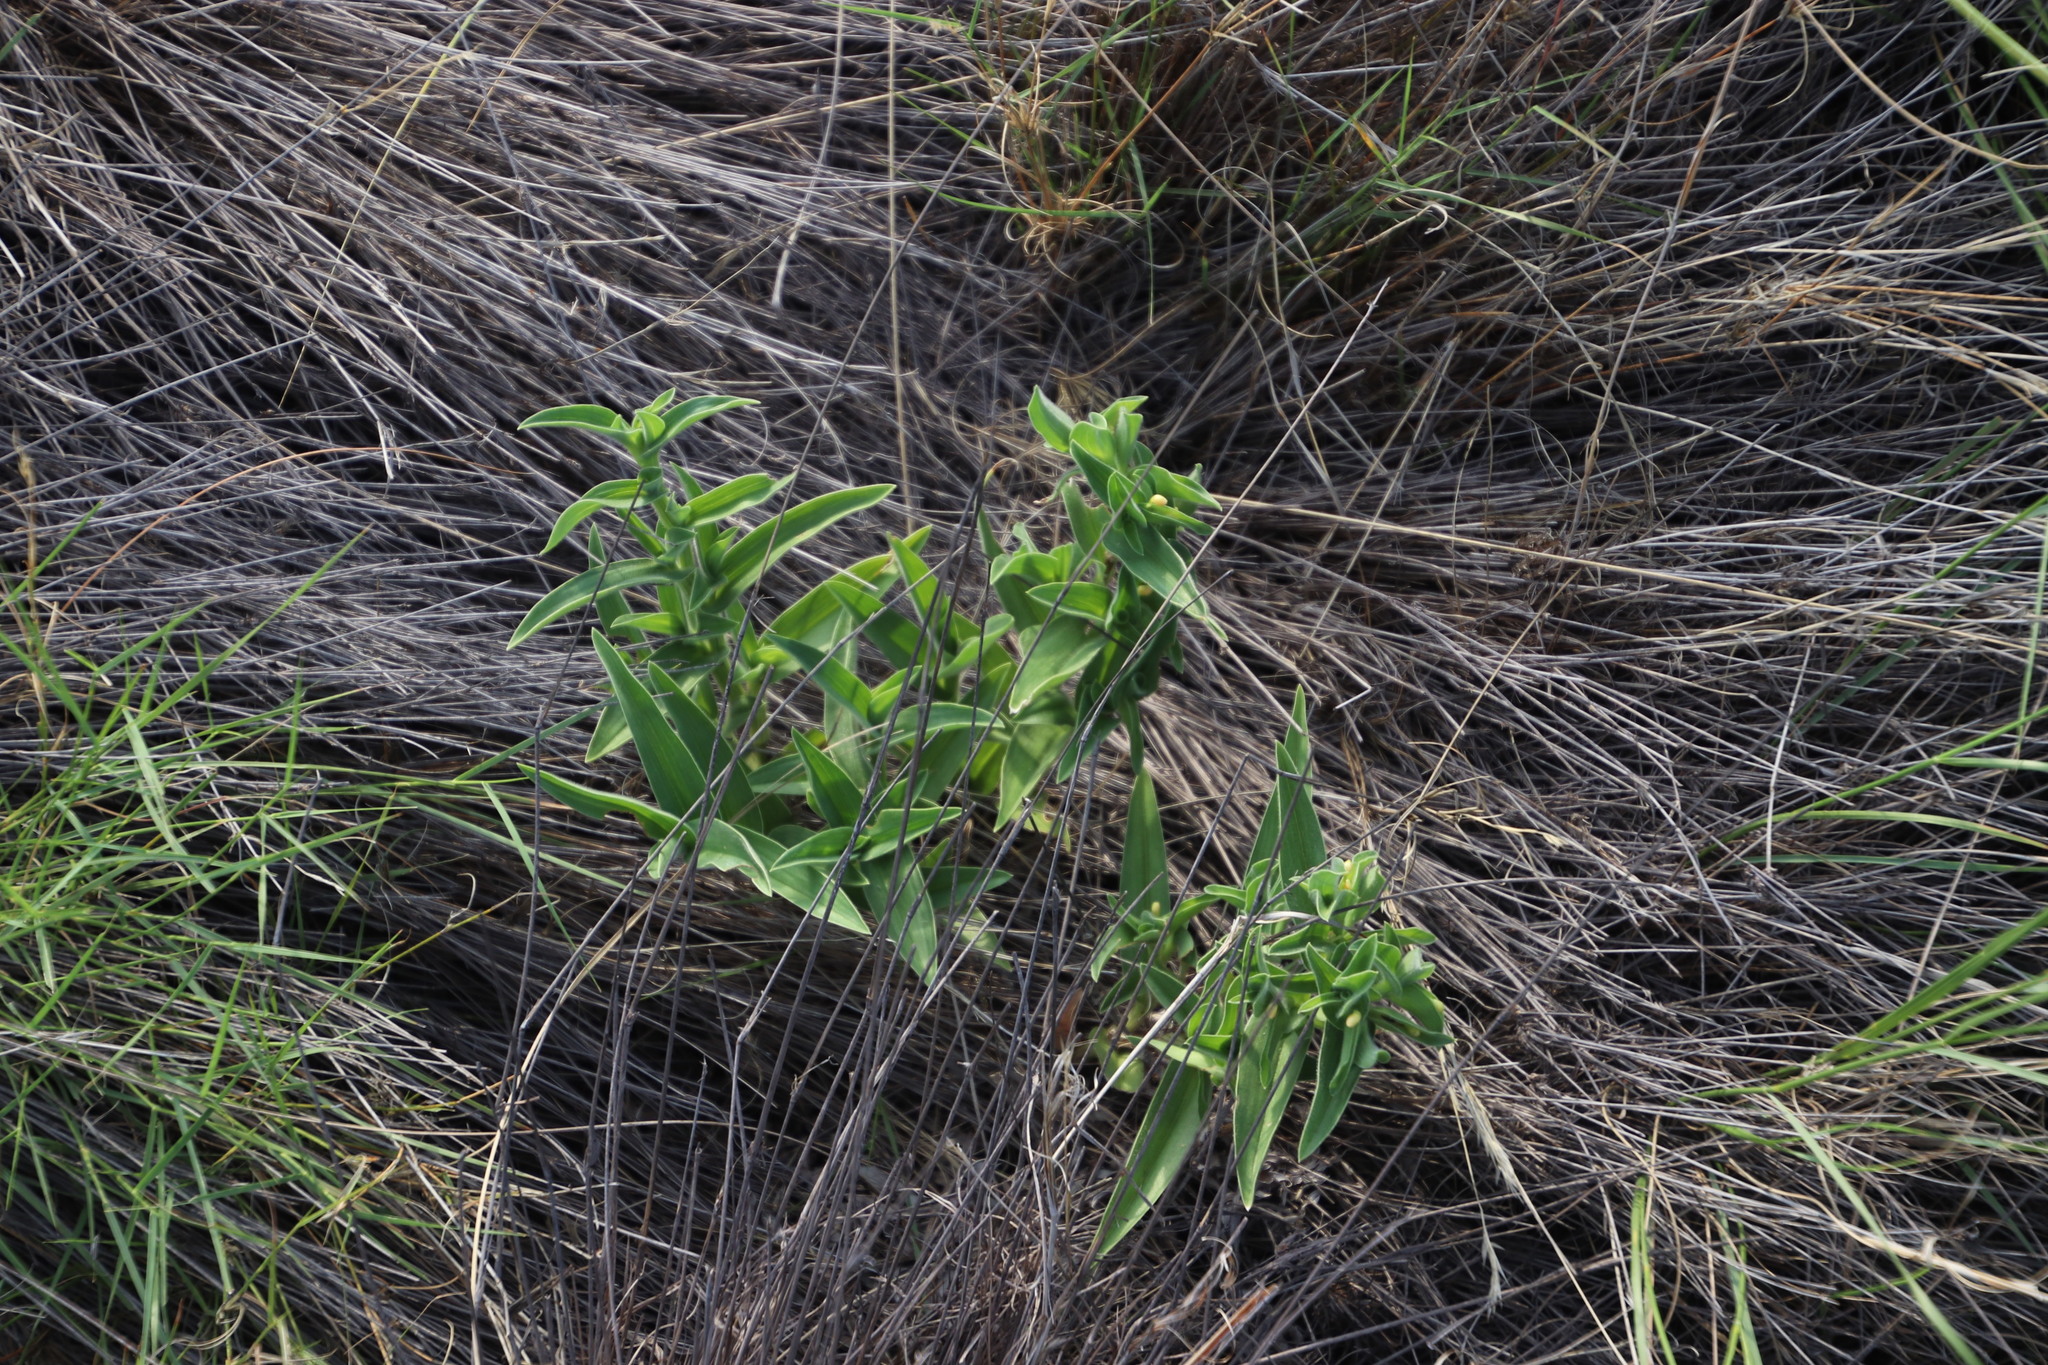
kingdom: Plantae
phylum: Tracheophyta
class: Liliopsida
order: Commelinales
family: Commelinaceae
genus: Cyanotis
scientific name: Cyanotis speciosa
